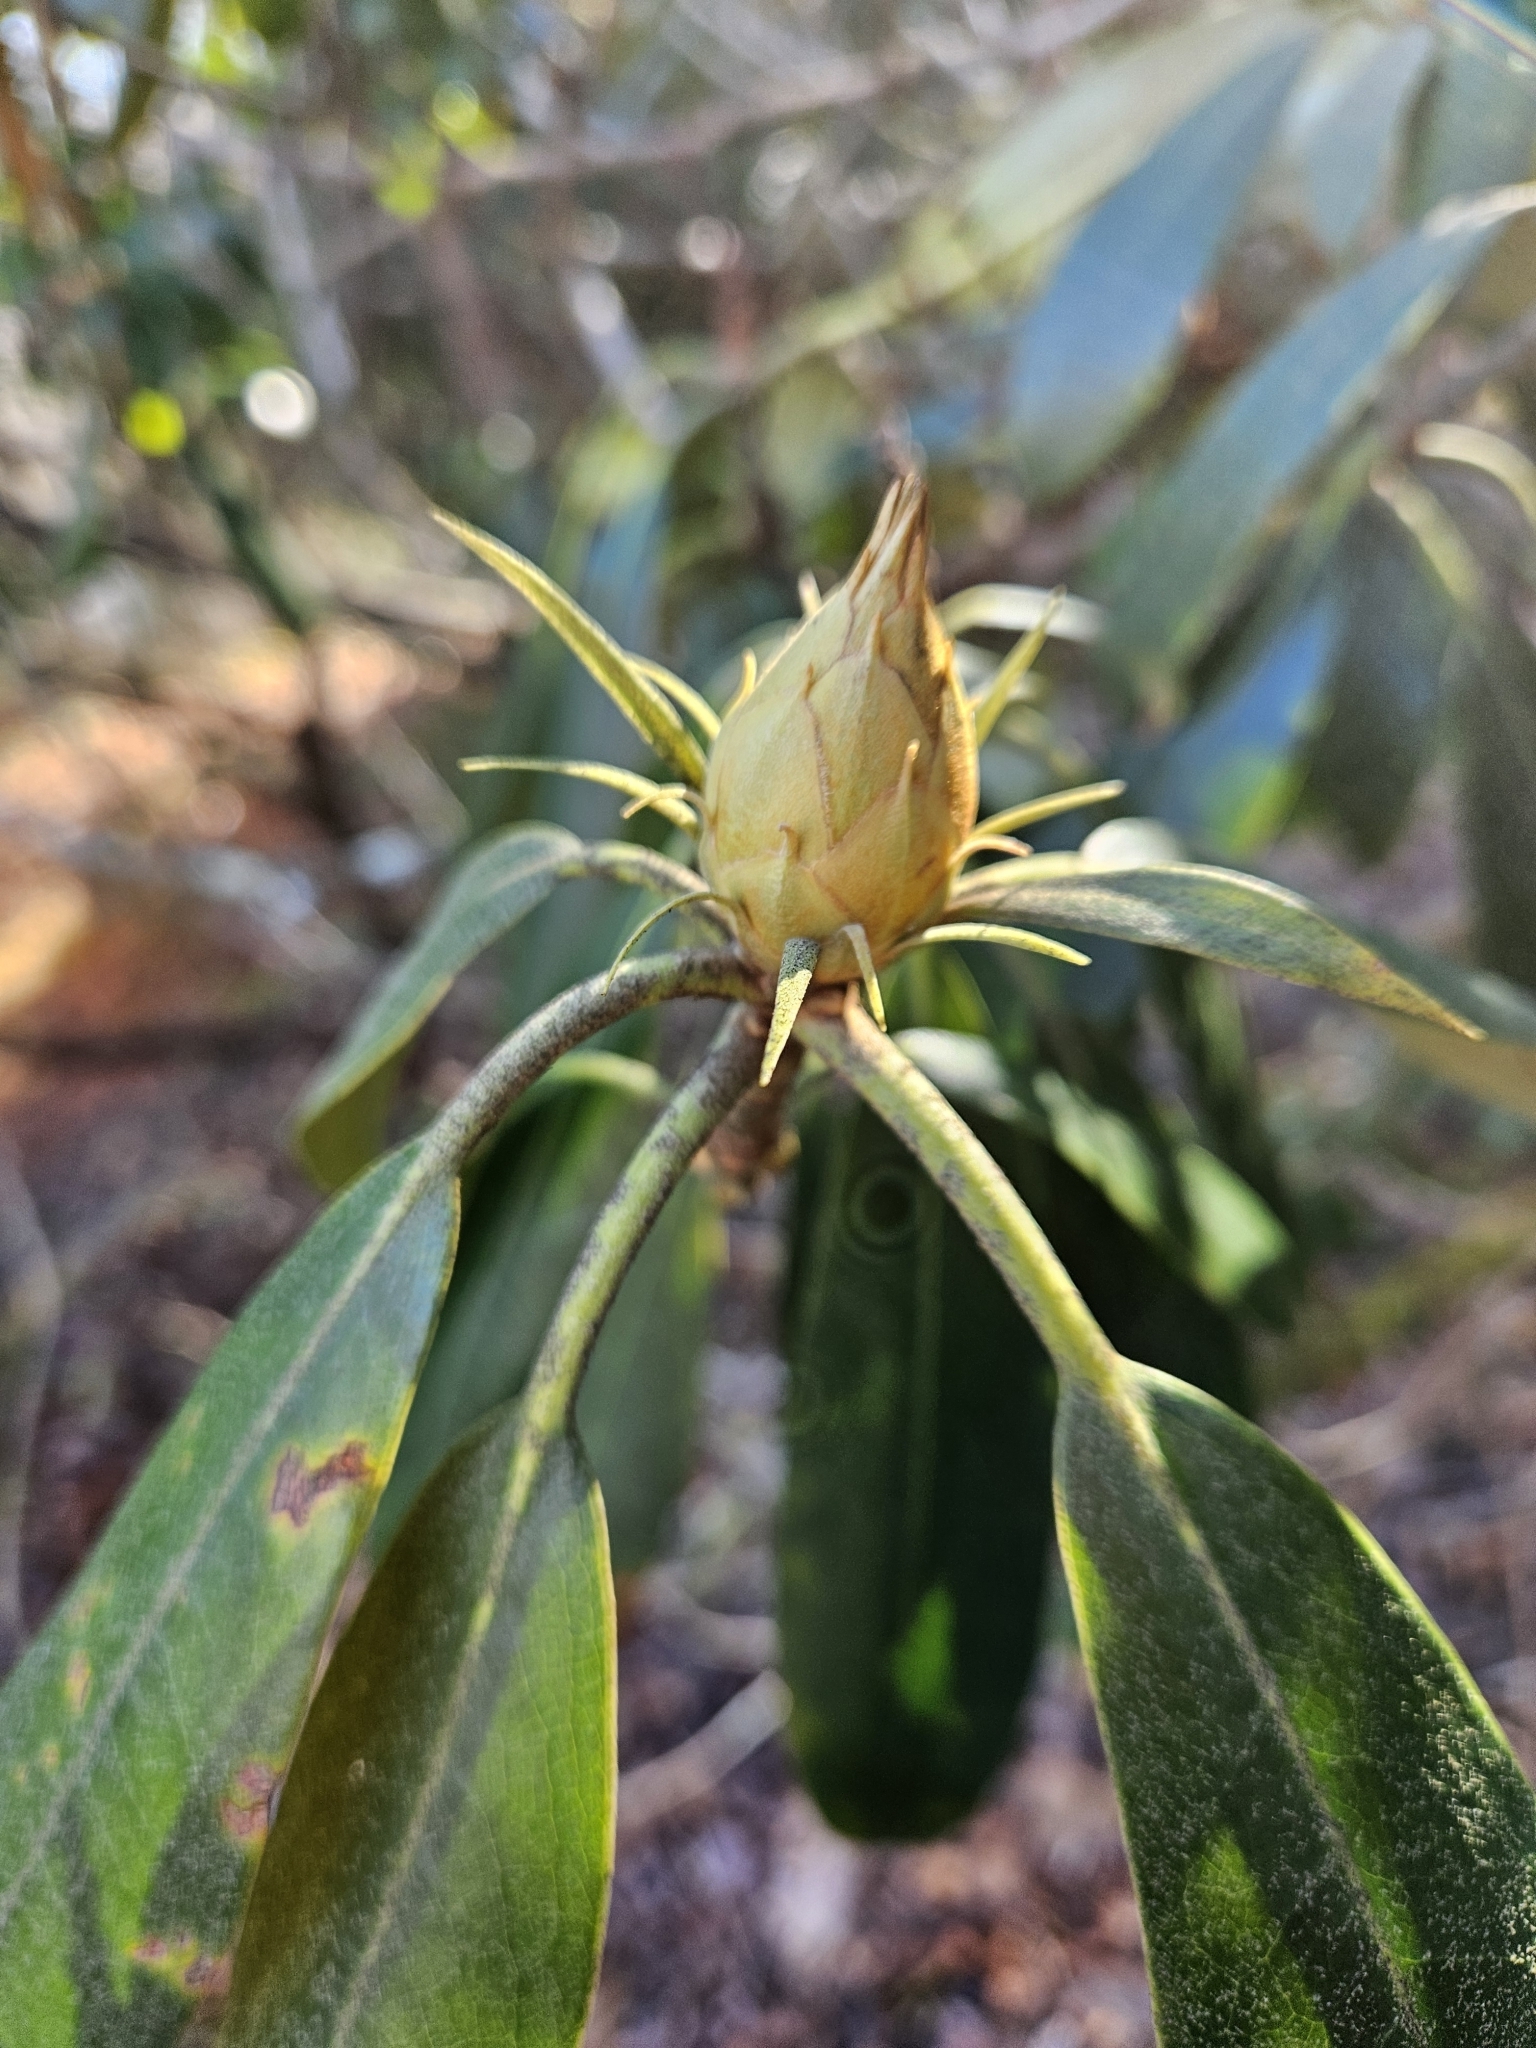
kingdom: Plantae
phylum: Tracheophyta
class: Magnoliopsida
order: Ericales
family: Ericaceae
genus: Rhododendron
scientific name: Rhododendron maximum
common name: Great rhododendron
